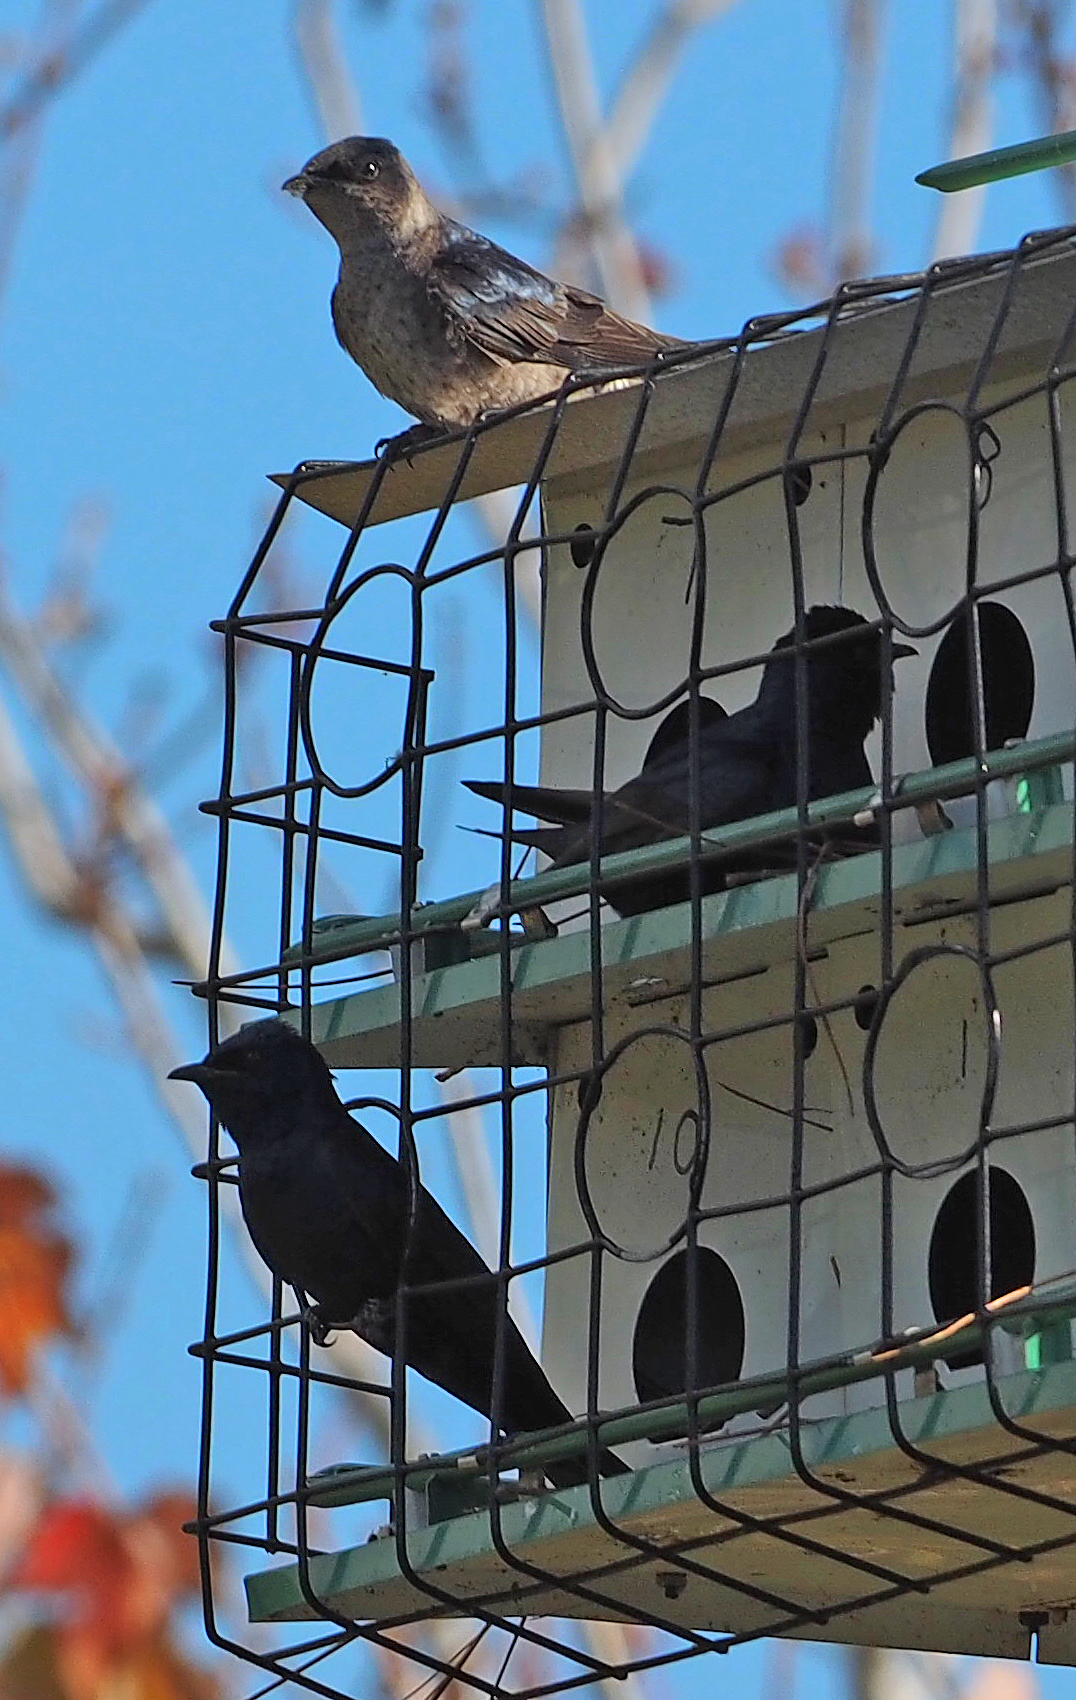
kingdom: Animalia
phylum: Chordata
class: Aves
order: Passeriformes
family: Hirundinidae
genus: Progne
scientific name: Progne subis
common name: Purple martin
